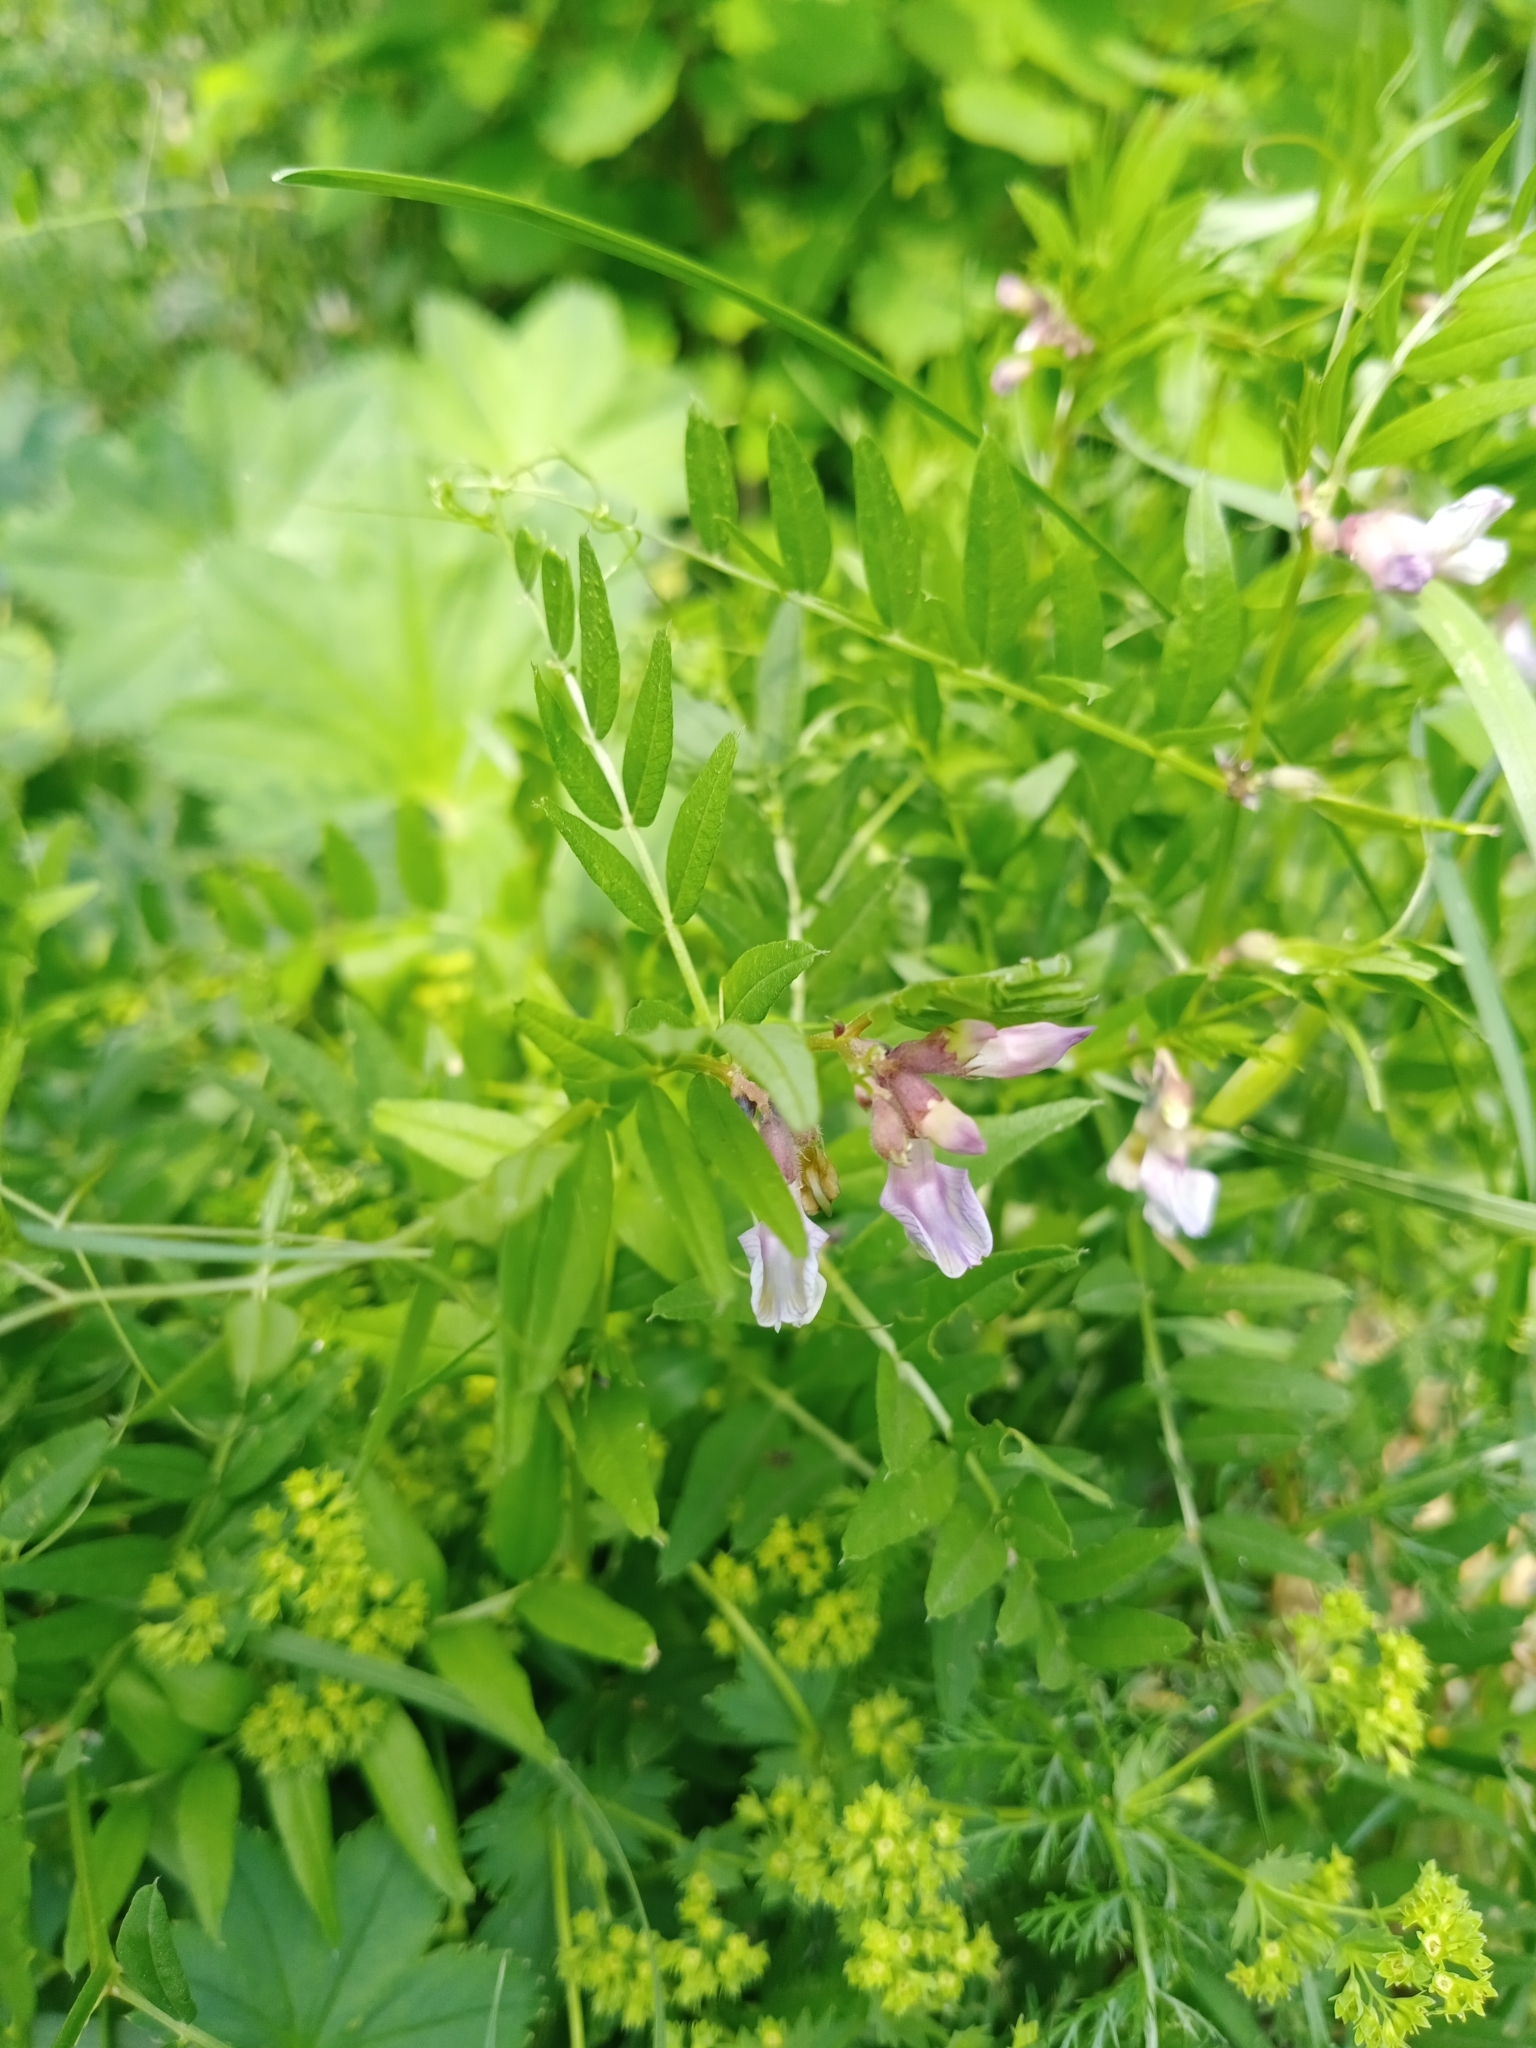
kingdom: Plantae
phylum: Tracheophyta
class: Magnoliopsida
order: Fabales
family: Fabaceae
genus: Vicia
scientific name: Vicia sepium
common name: Bush vetch
